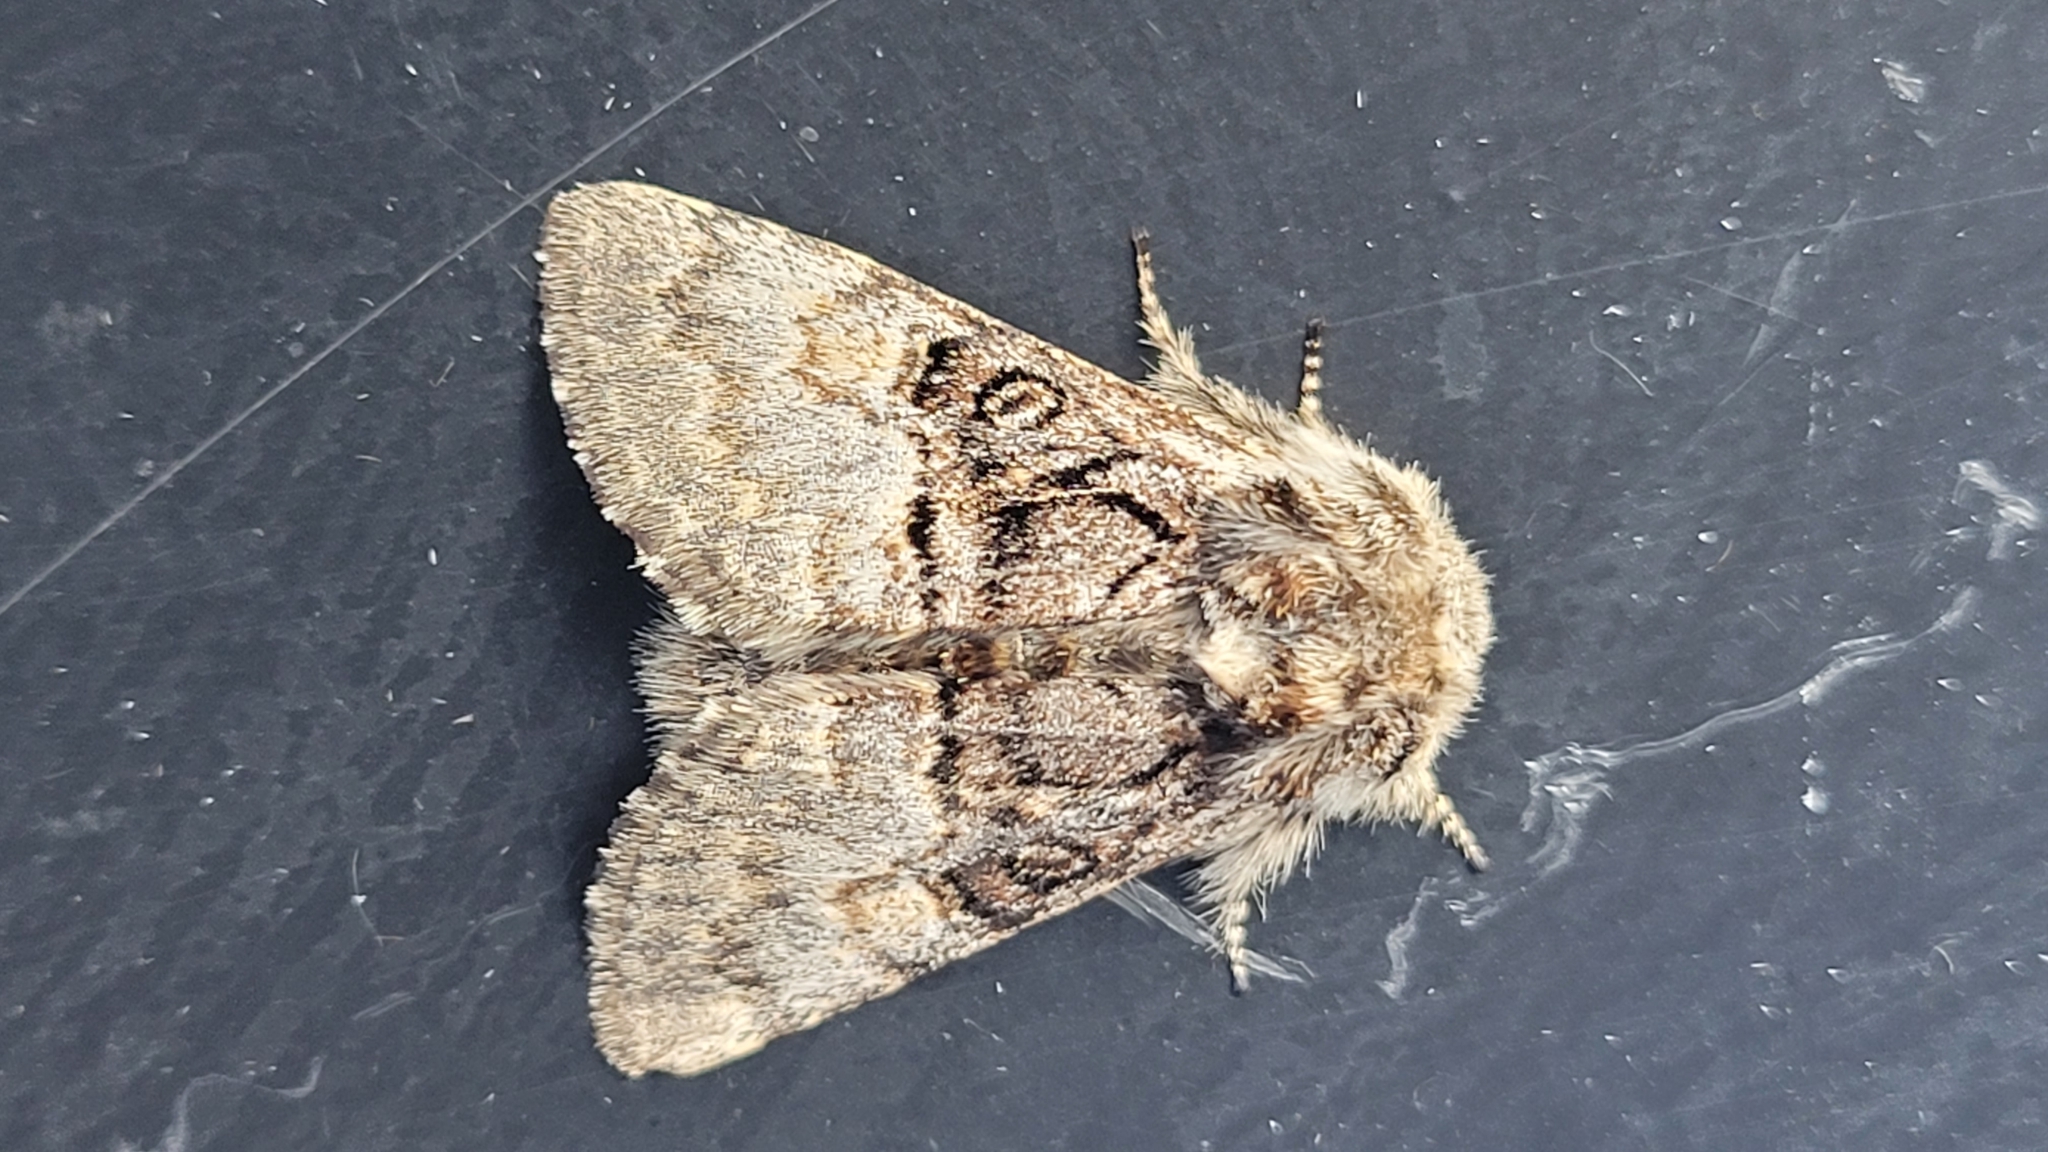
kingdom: Animalia
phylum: Arthropoda
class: Insecta
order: Lepidoptera
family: Noctuidae
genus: Colocasia
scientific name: Colocasia coryli
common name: Nut-tree tussock
